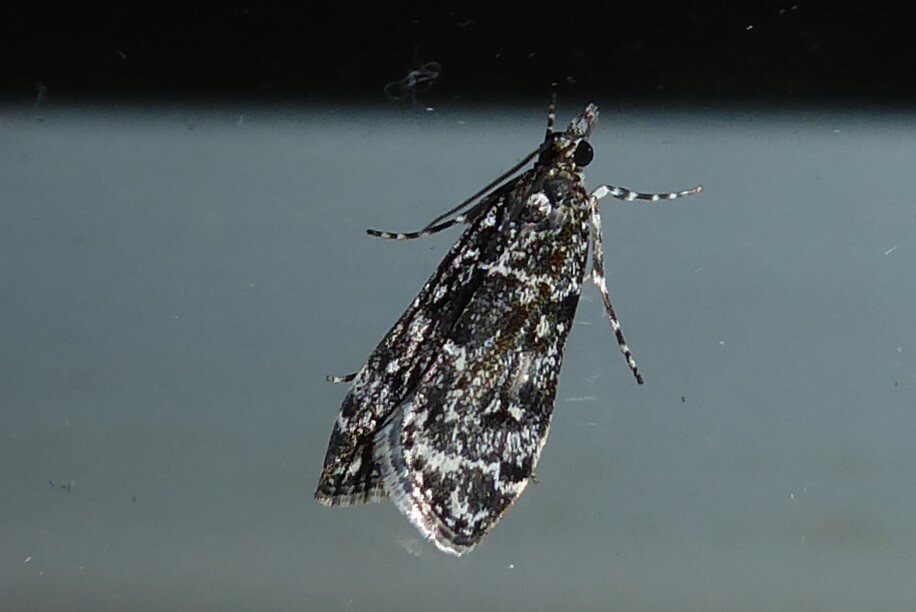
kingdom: Animalia
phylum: Arthropoda
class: Insecta
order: Lepidoptera
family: Crambidae
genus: Eudonia
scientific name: Eudonia philerga
